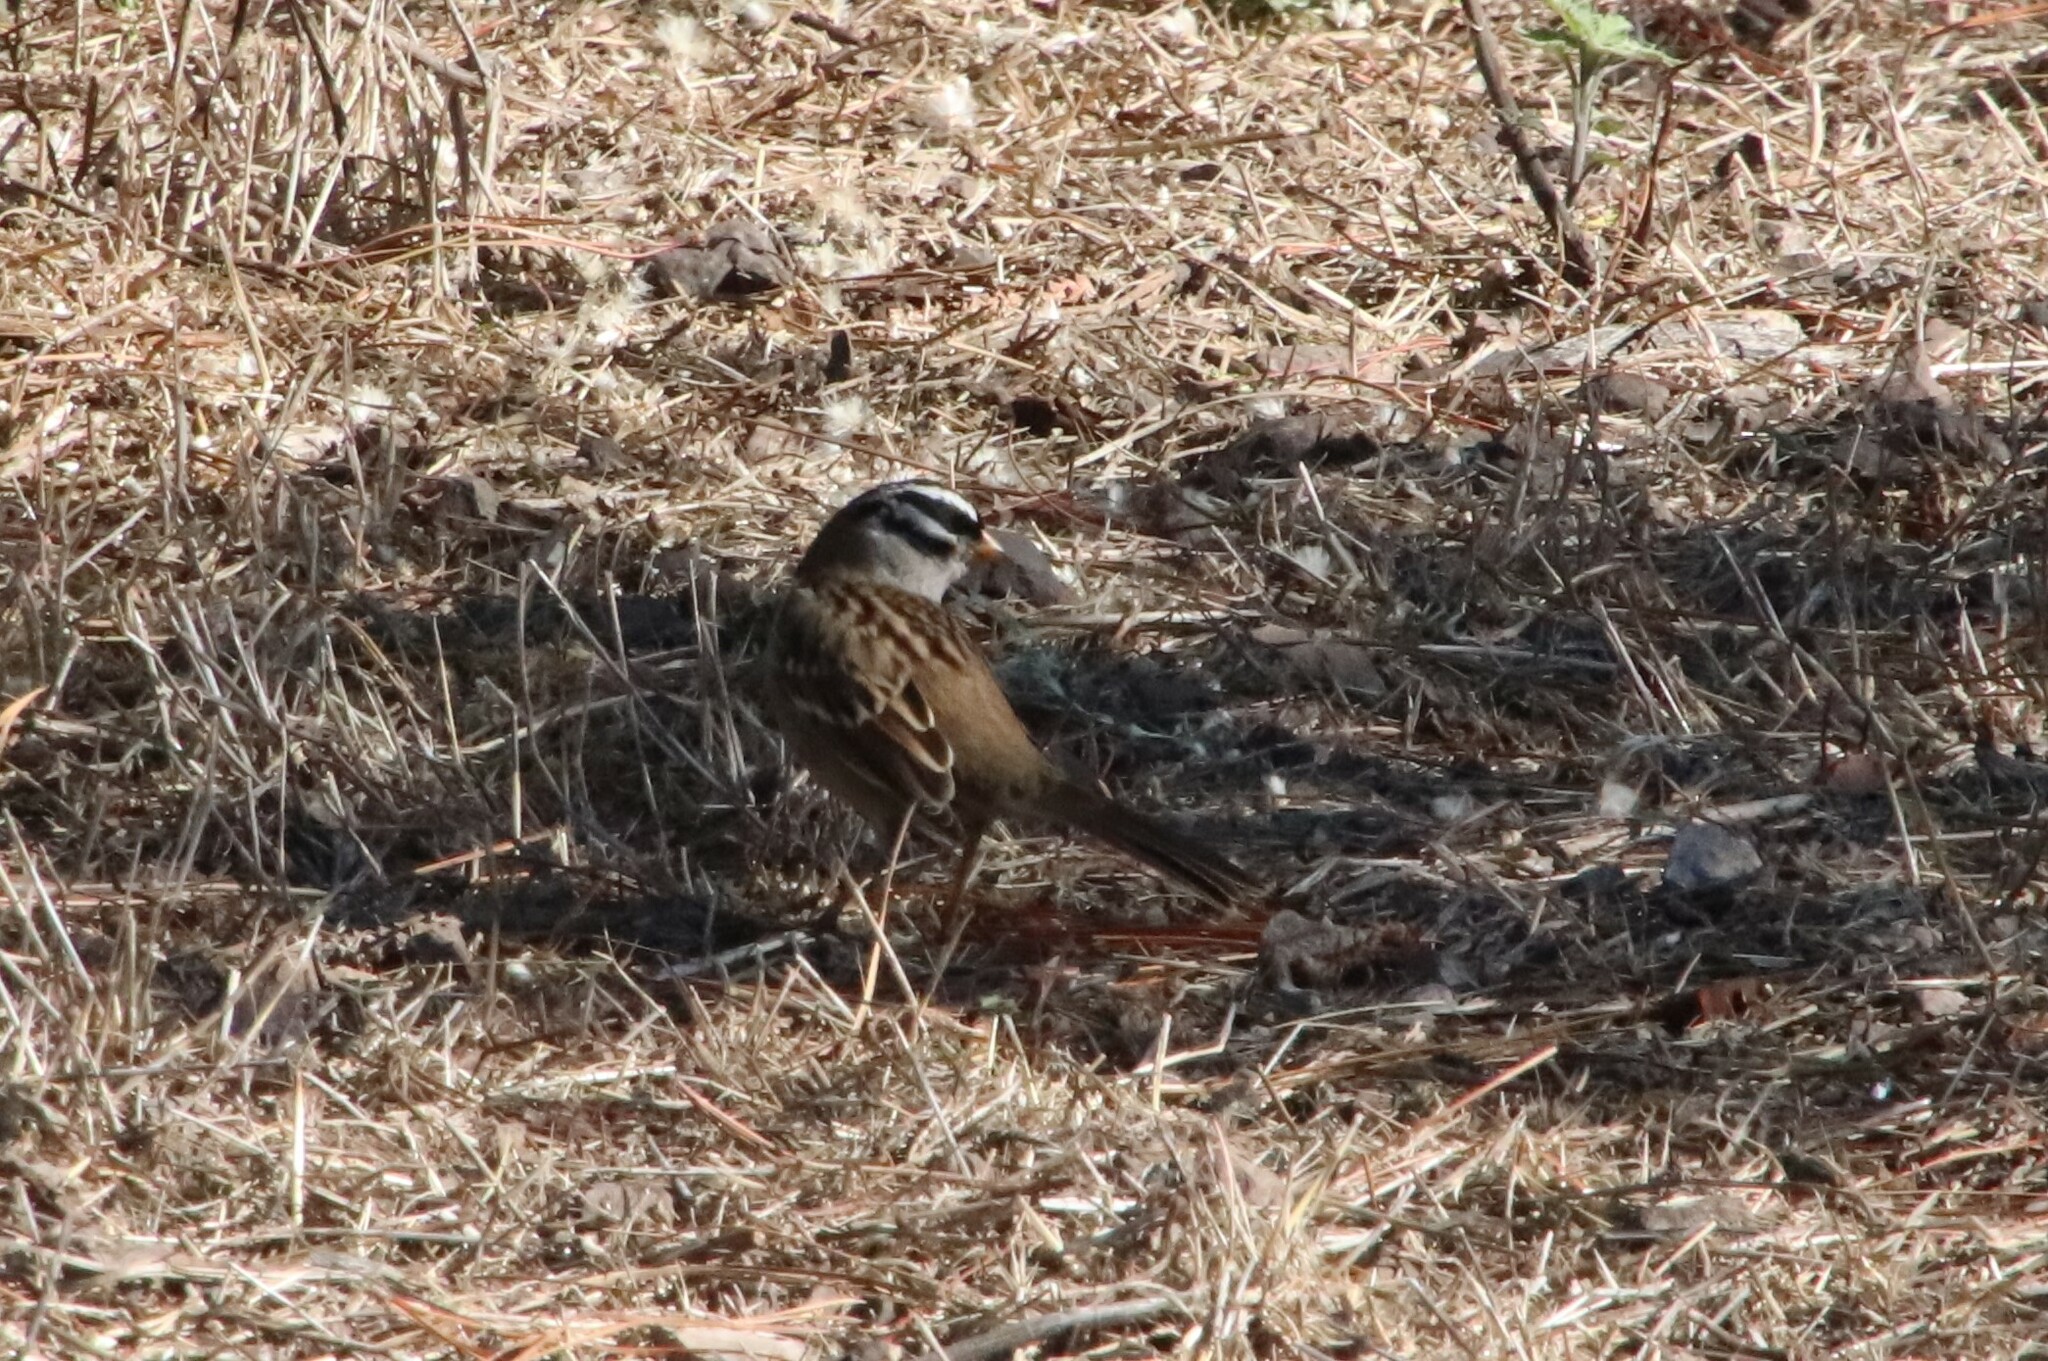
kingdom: Animalia
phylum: Chordata
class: Aves
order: Passeriformes
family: Passerellidae
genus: Zonotrichia
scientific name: Zonotrichia leucophrys
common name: White-crowned sparrow
